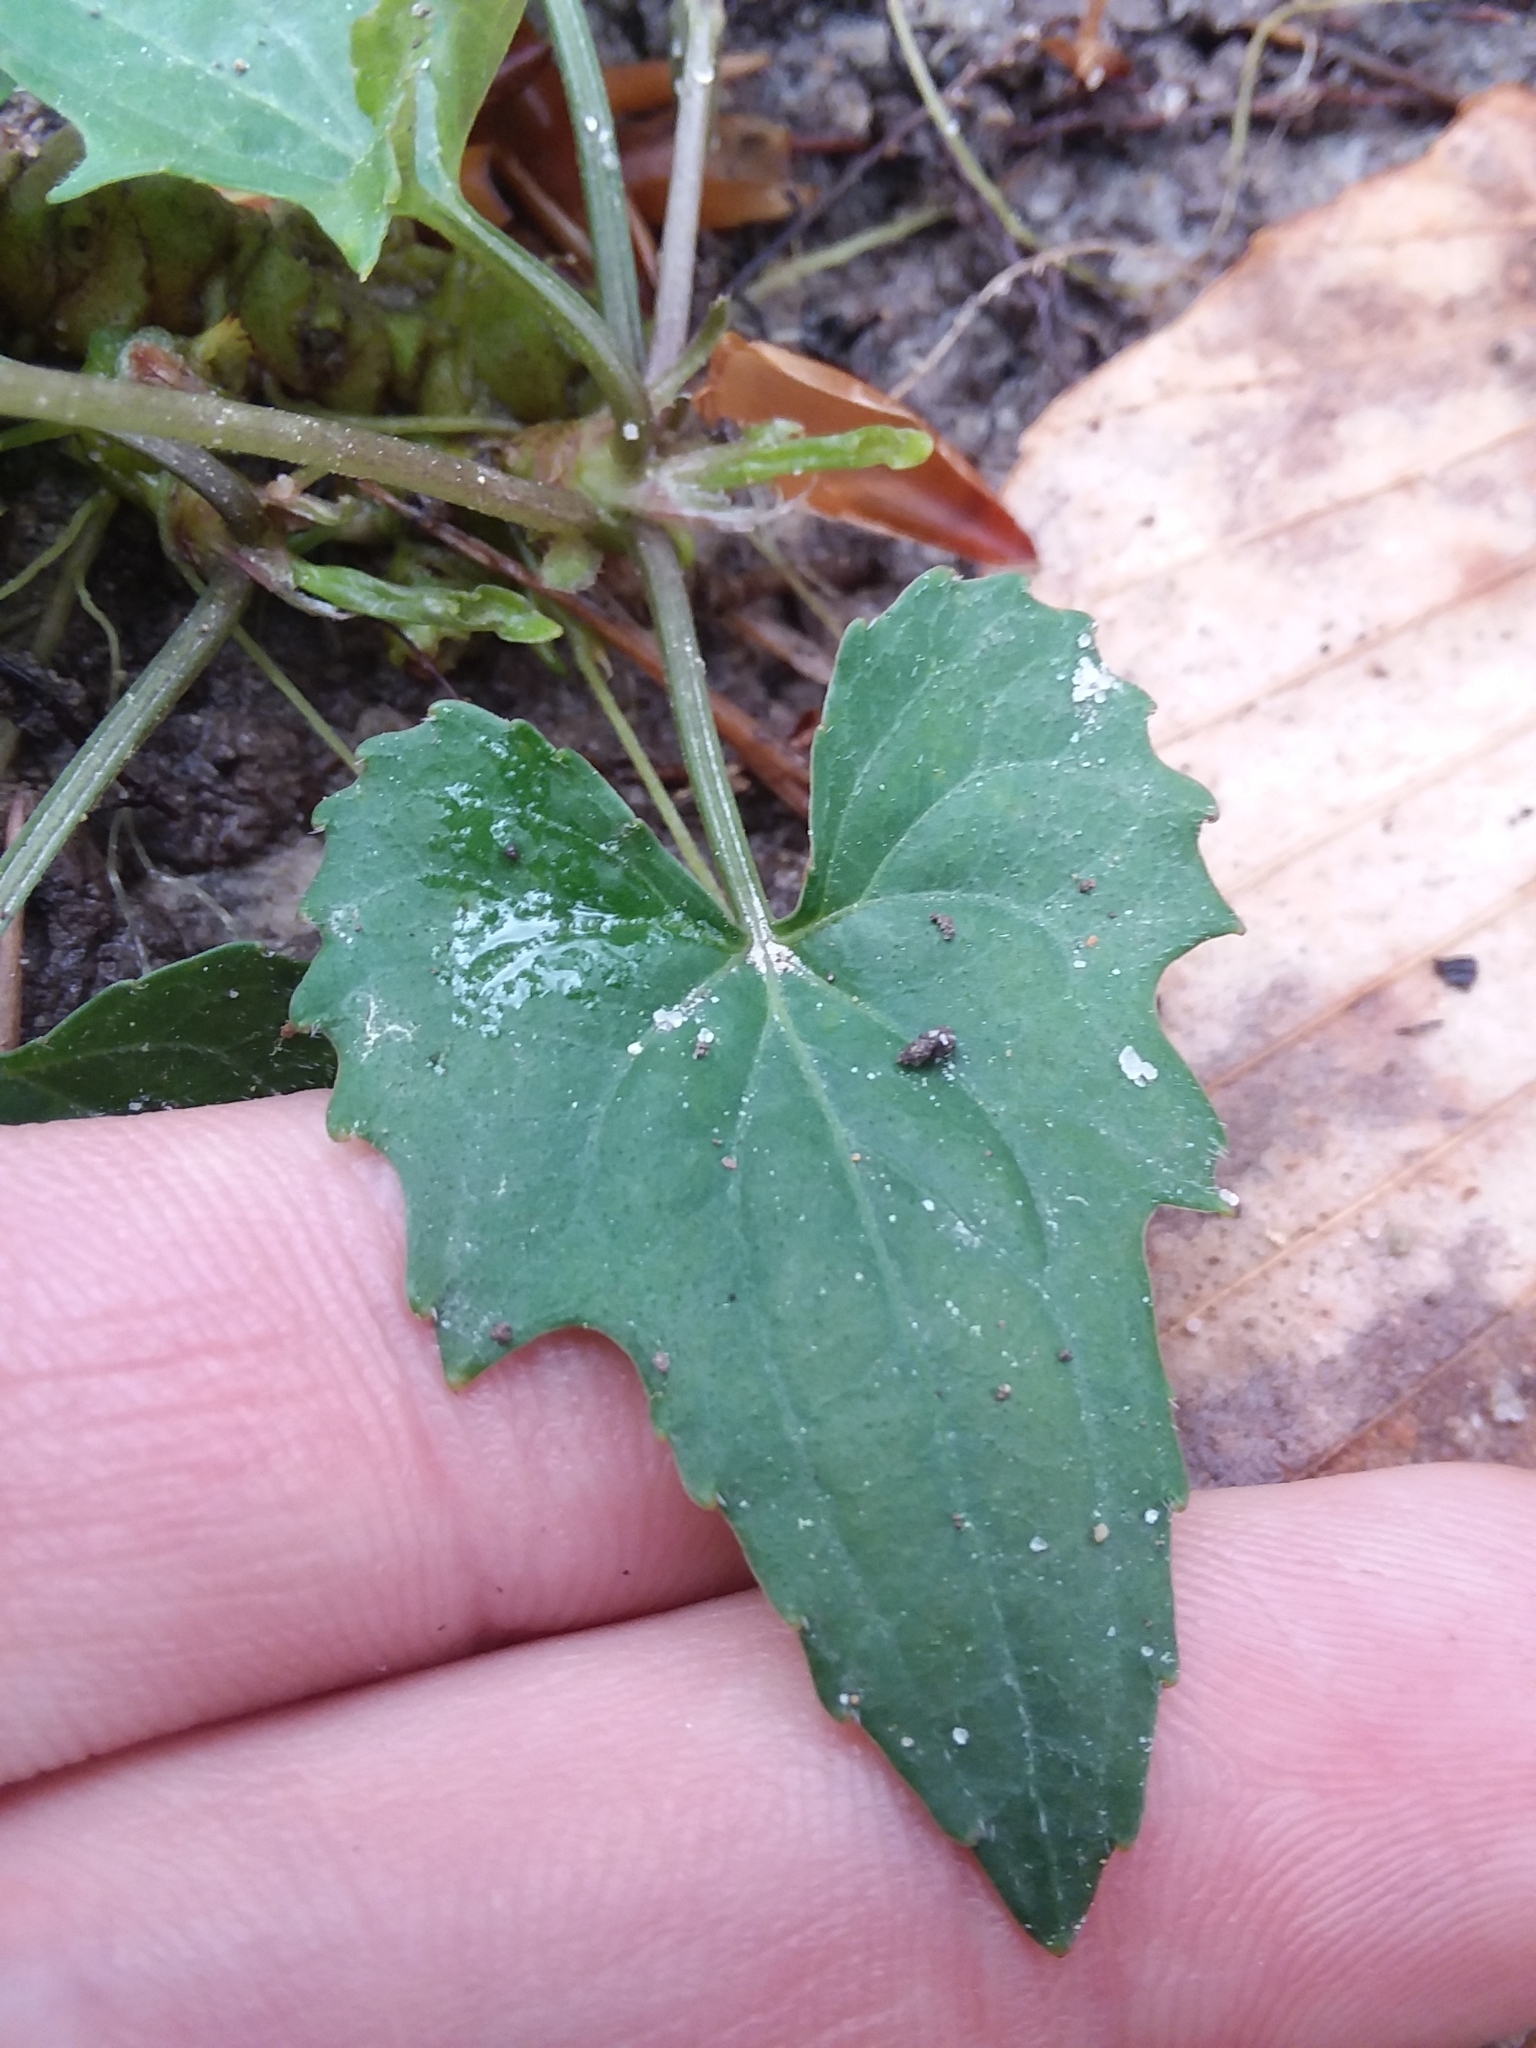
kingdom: Plantae
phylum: Tracheophyta
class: Magnoliopsida
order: Malpighiales
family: Violaceae
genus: Viola
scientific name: Viola edulis
